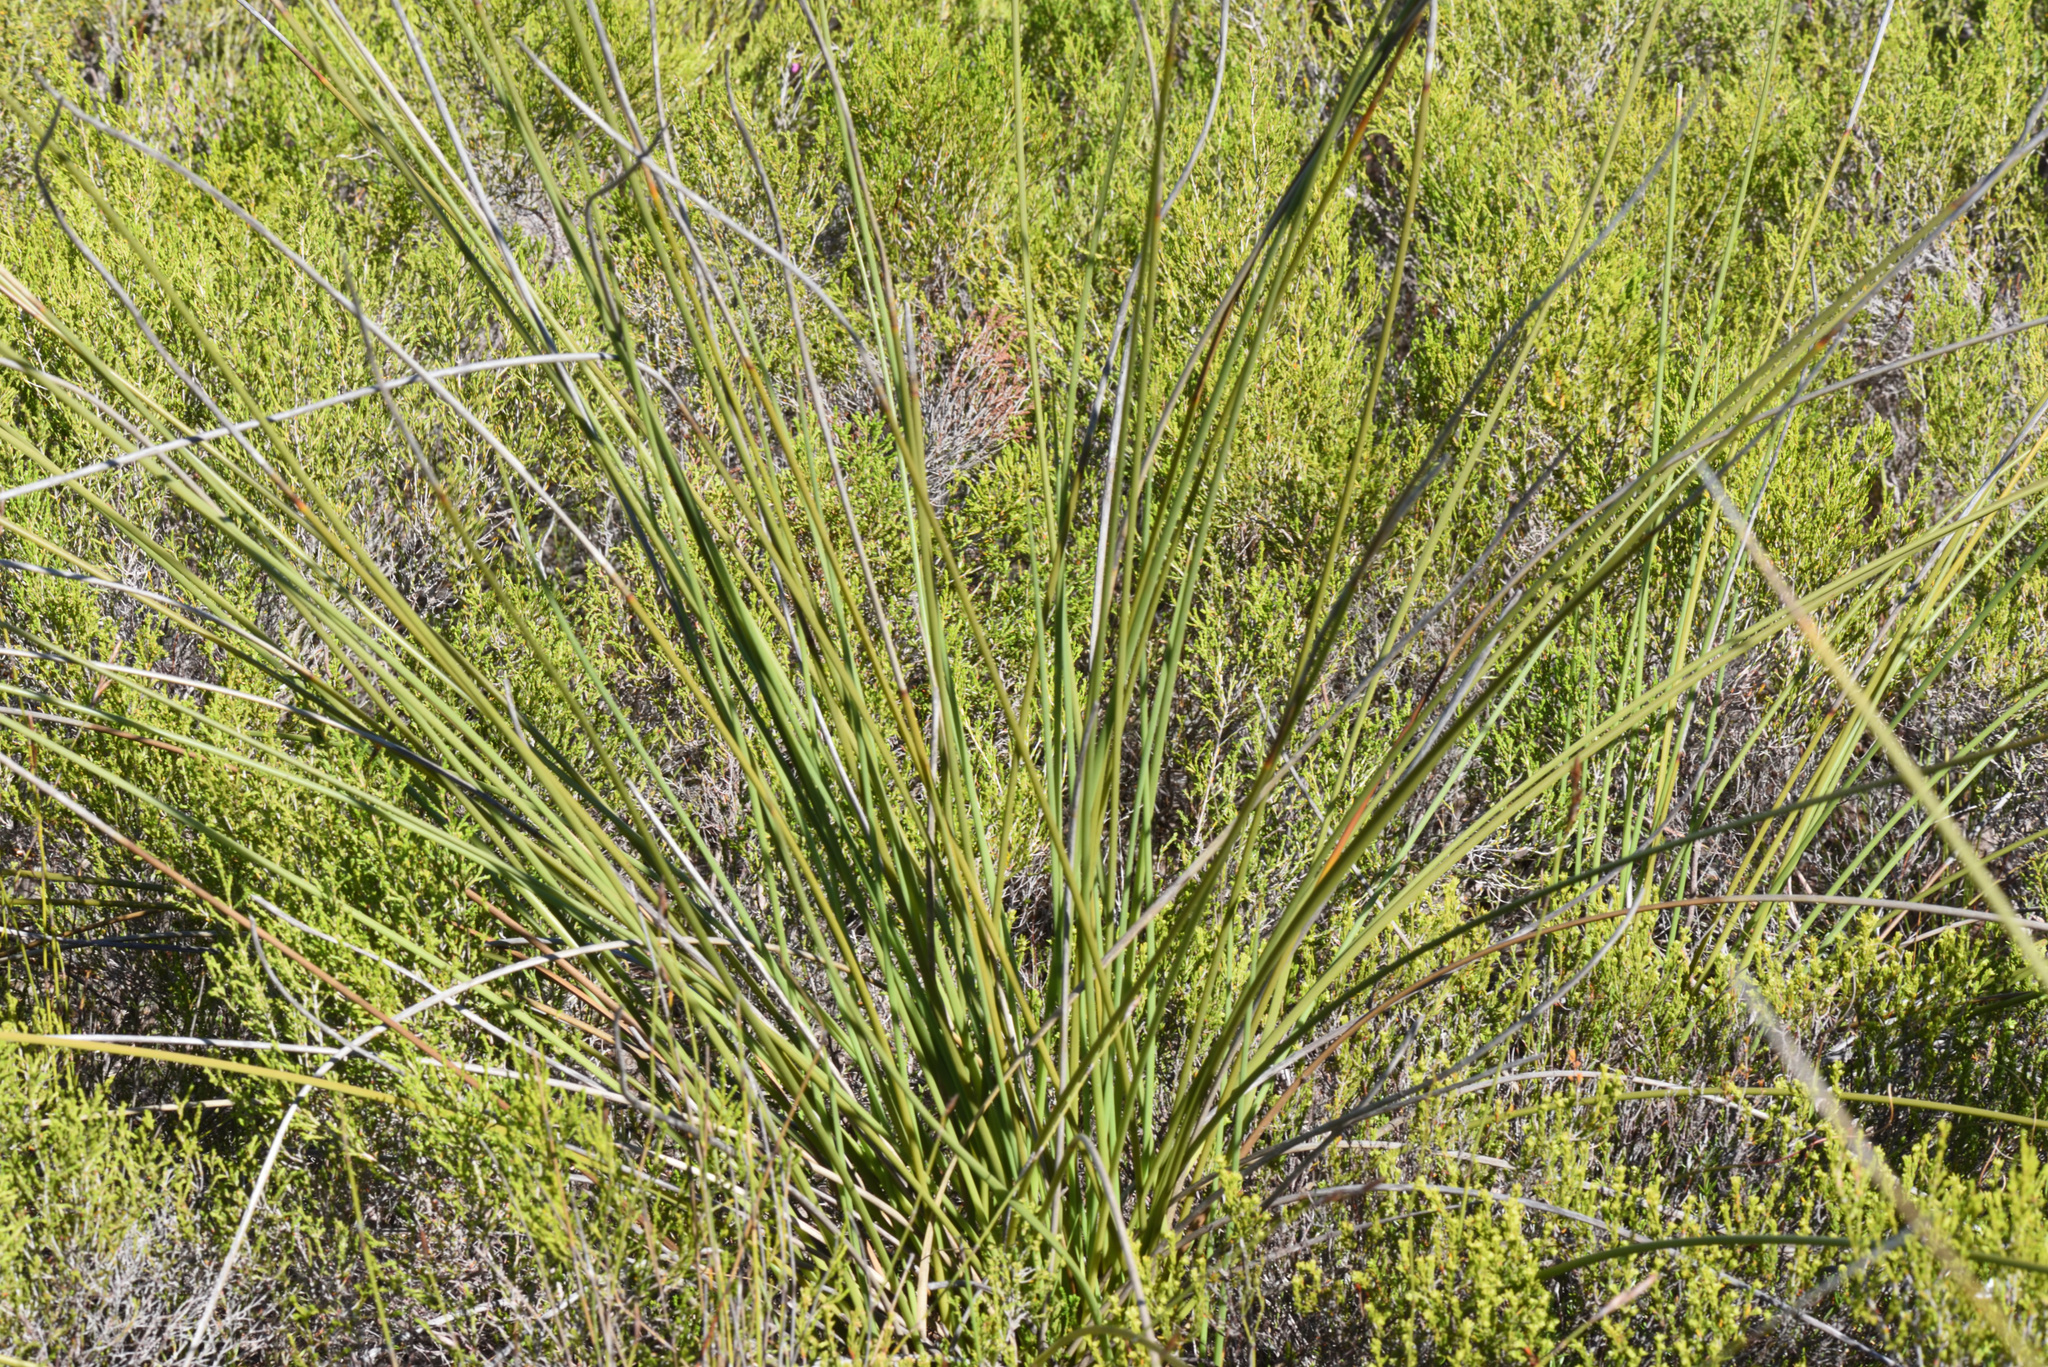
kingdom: Plantae
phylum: Tracheophyta
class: Liliopsida
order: Asparagales
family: Iridaceae
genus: Bobartia
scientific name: Bobartia orientalis
